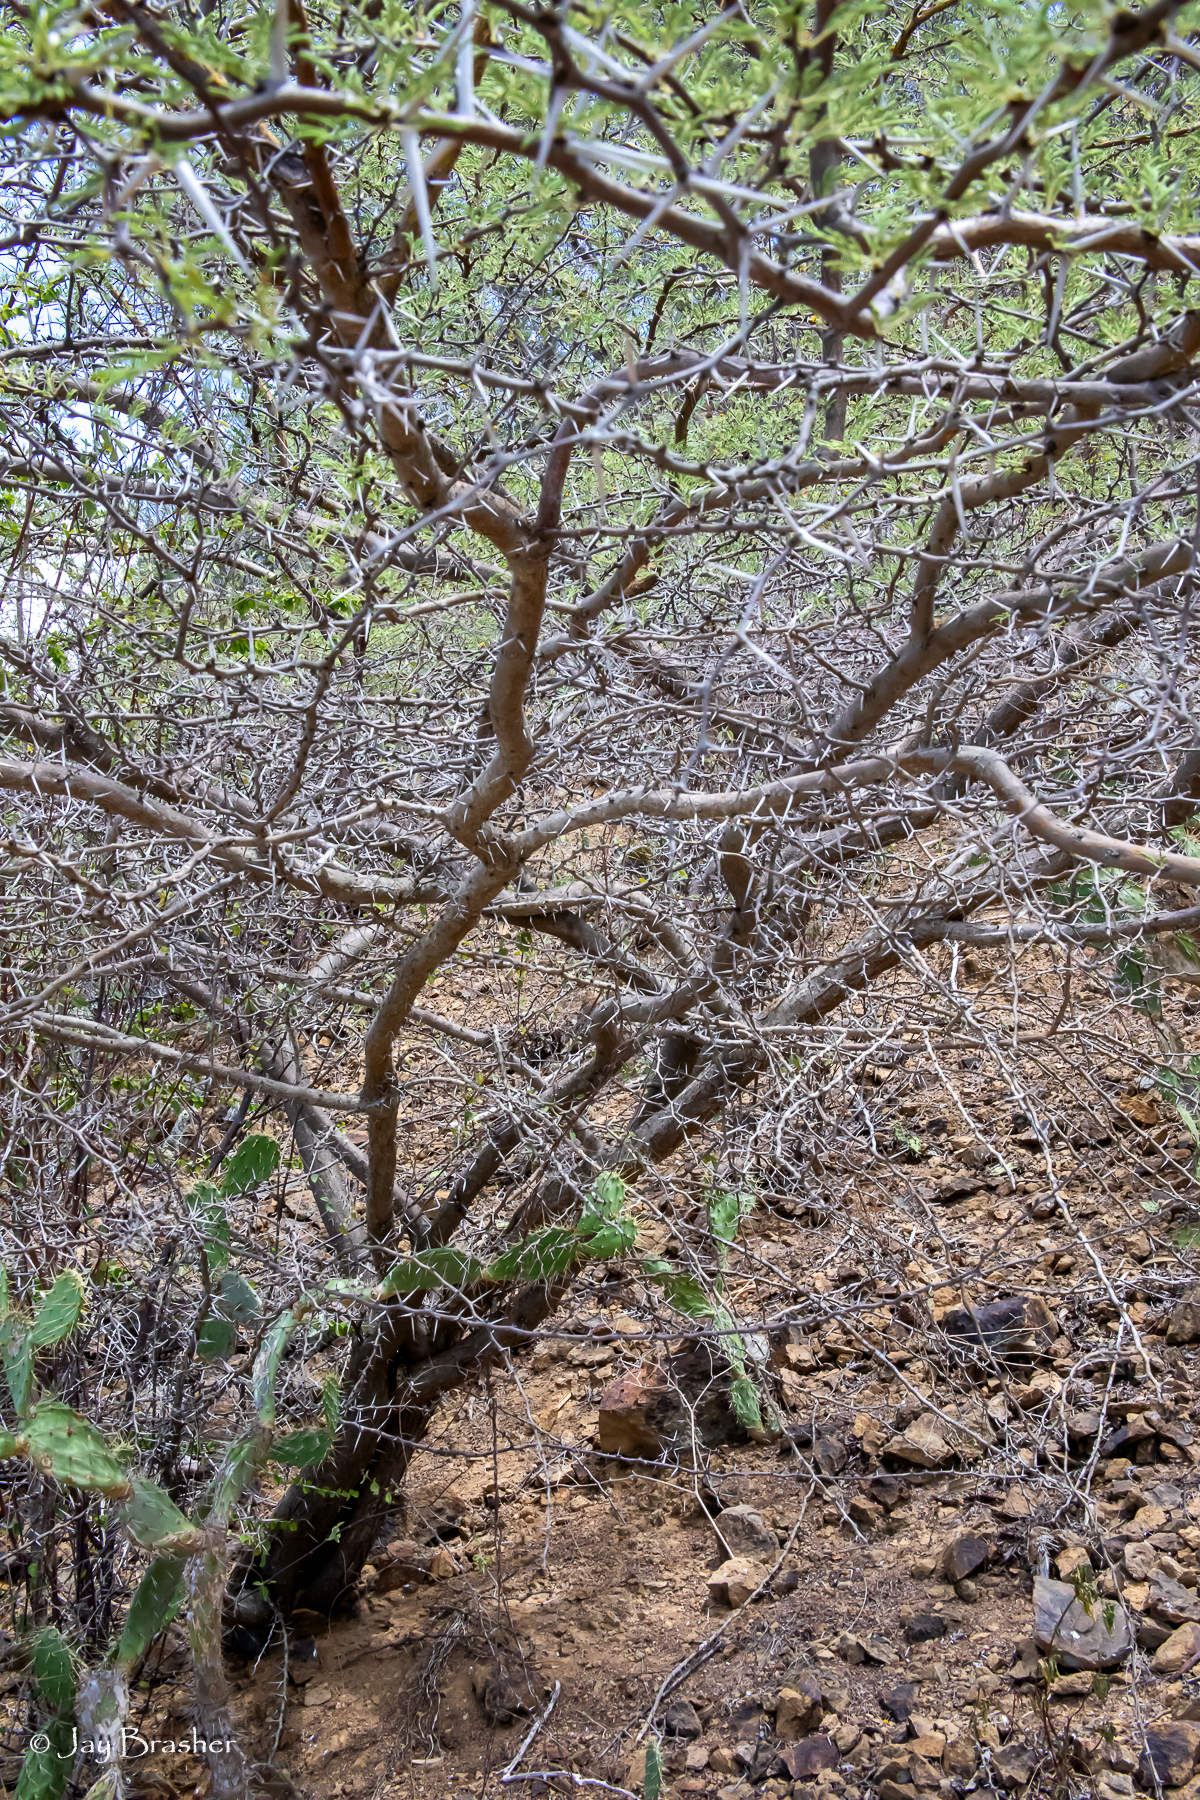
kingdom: Plantae
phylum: Tracheophyta
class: Magnoliopsida
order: Fabales
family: Fabaceae
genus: Vachellia
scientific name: Vachellia tortuosa
